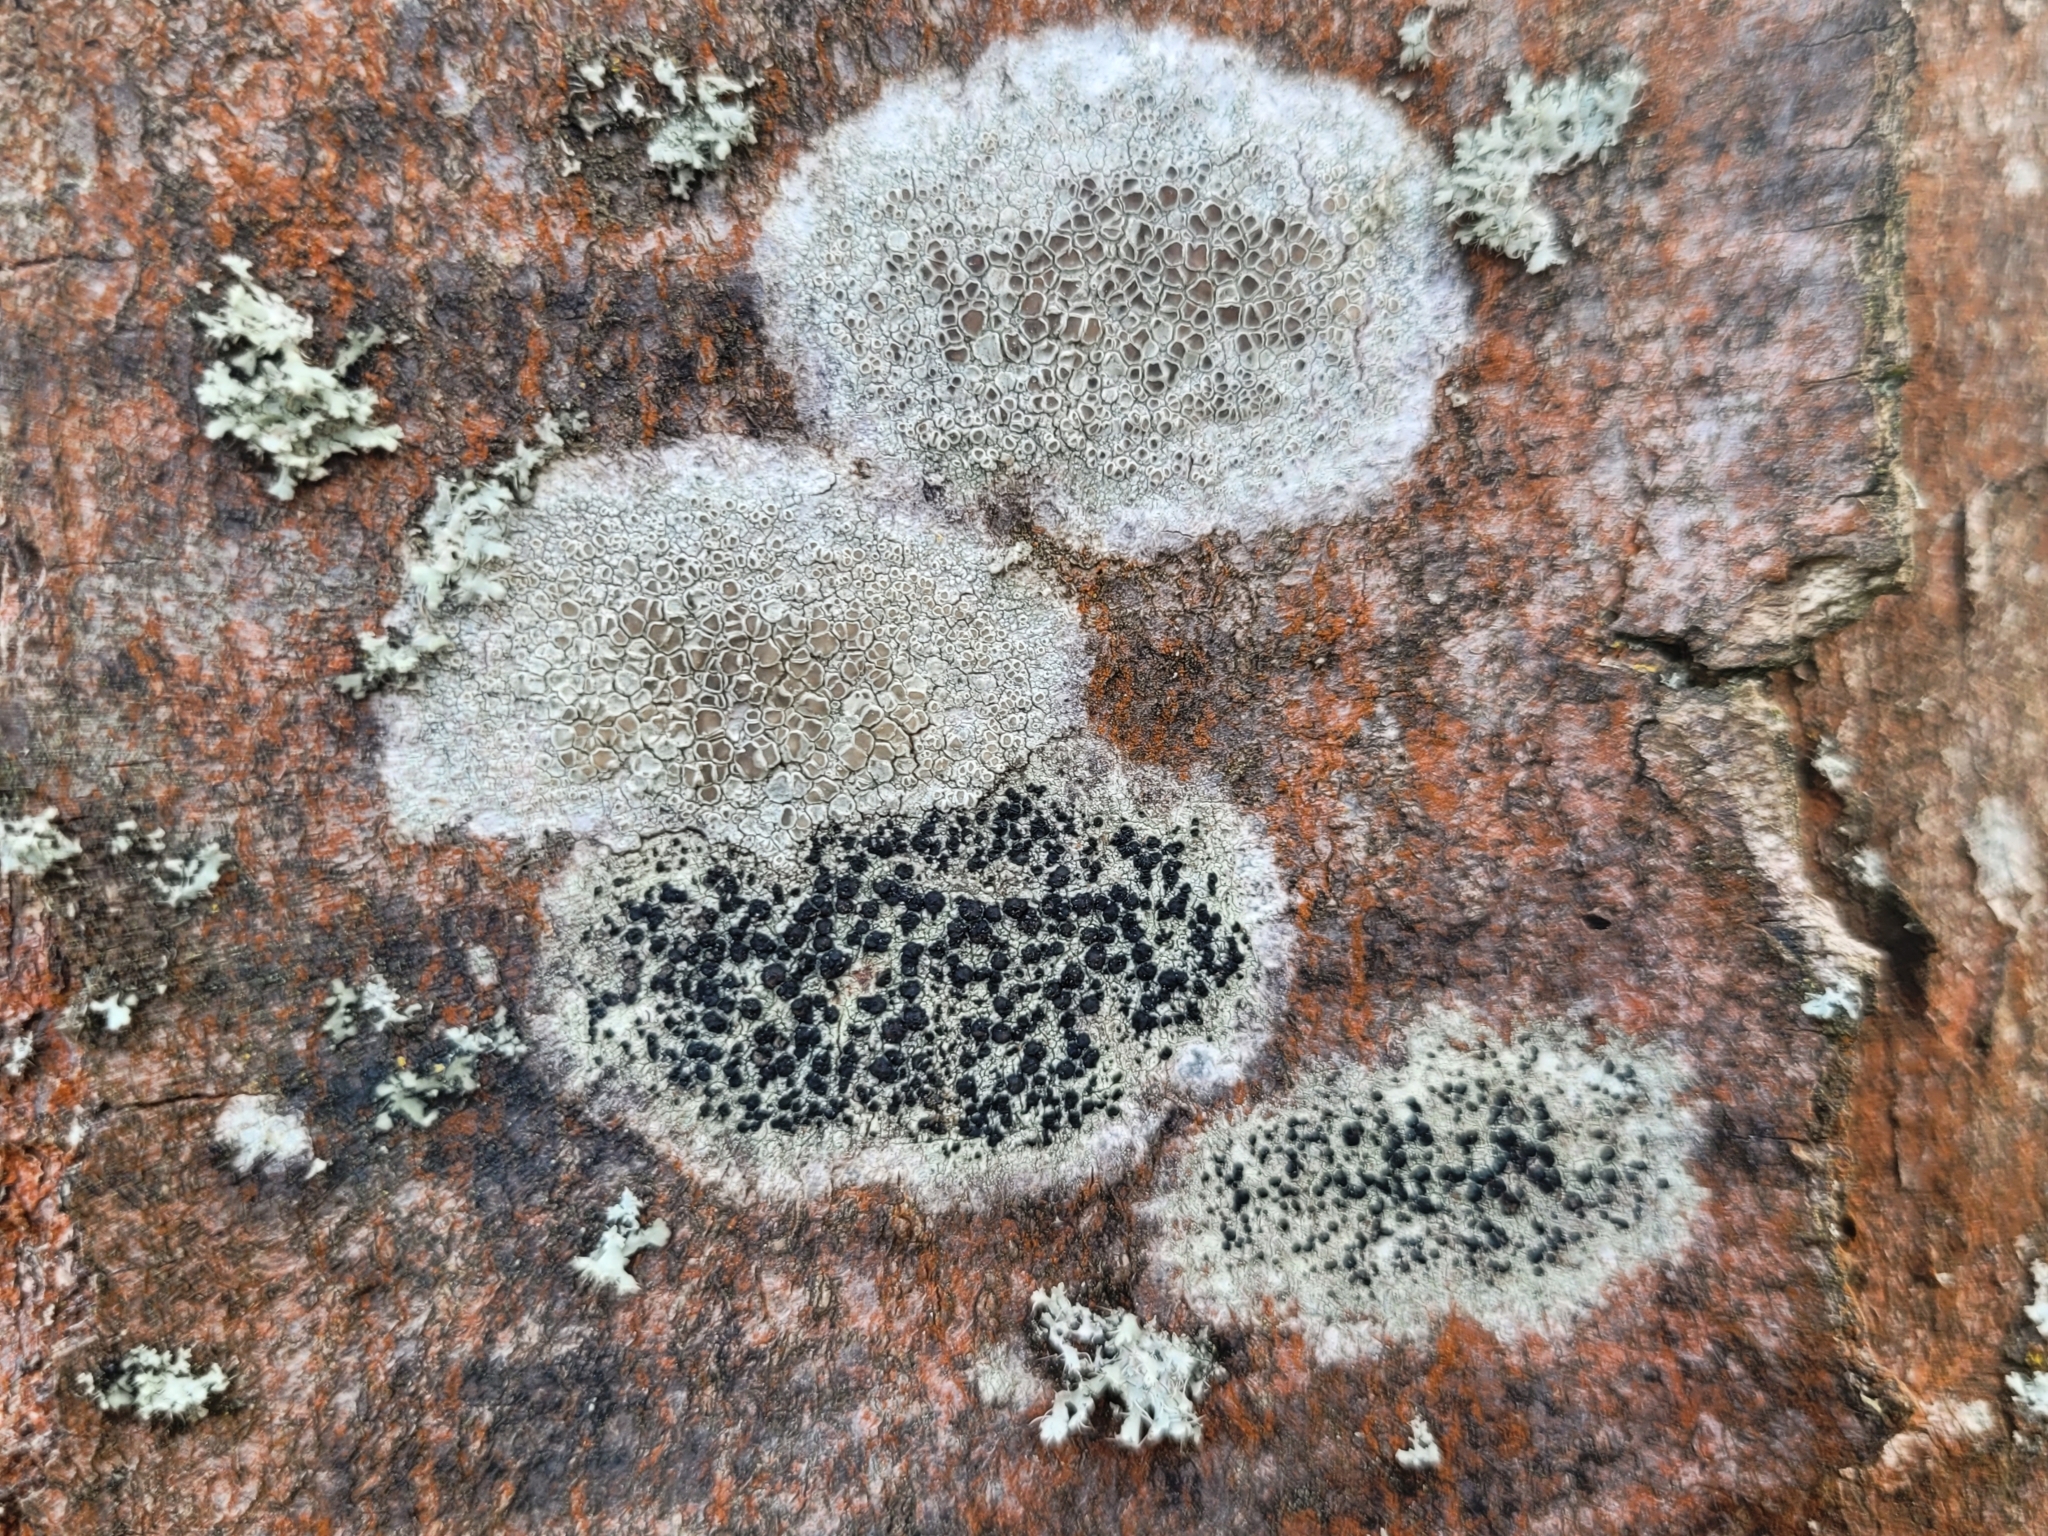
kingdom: Fungi
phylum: Ascomycota
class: Lecanoromycetes
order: Lecanorales
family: Lecanoraceae
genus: Lecidella
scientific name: Lecidella elaeochroma
